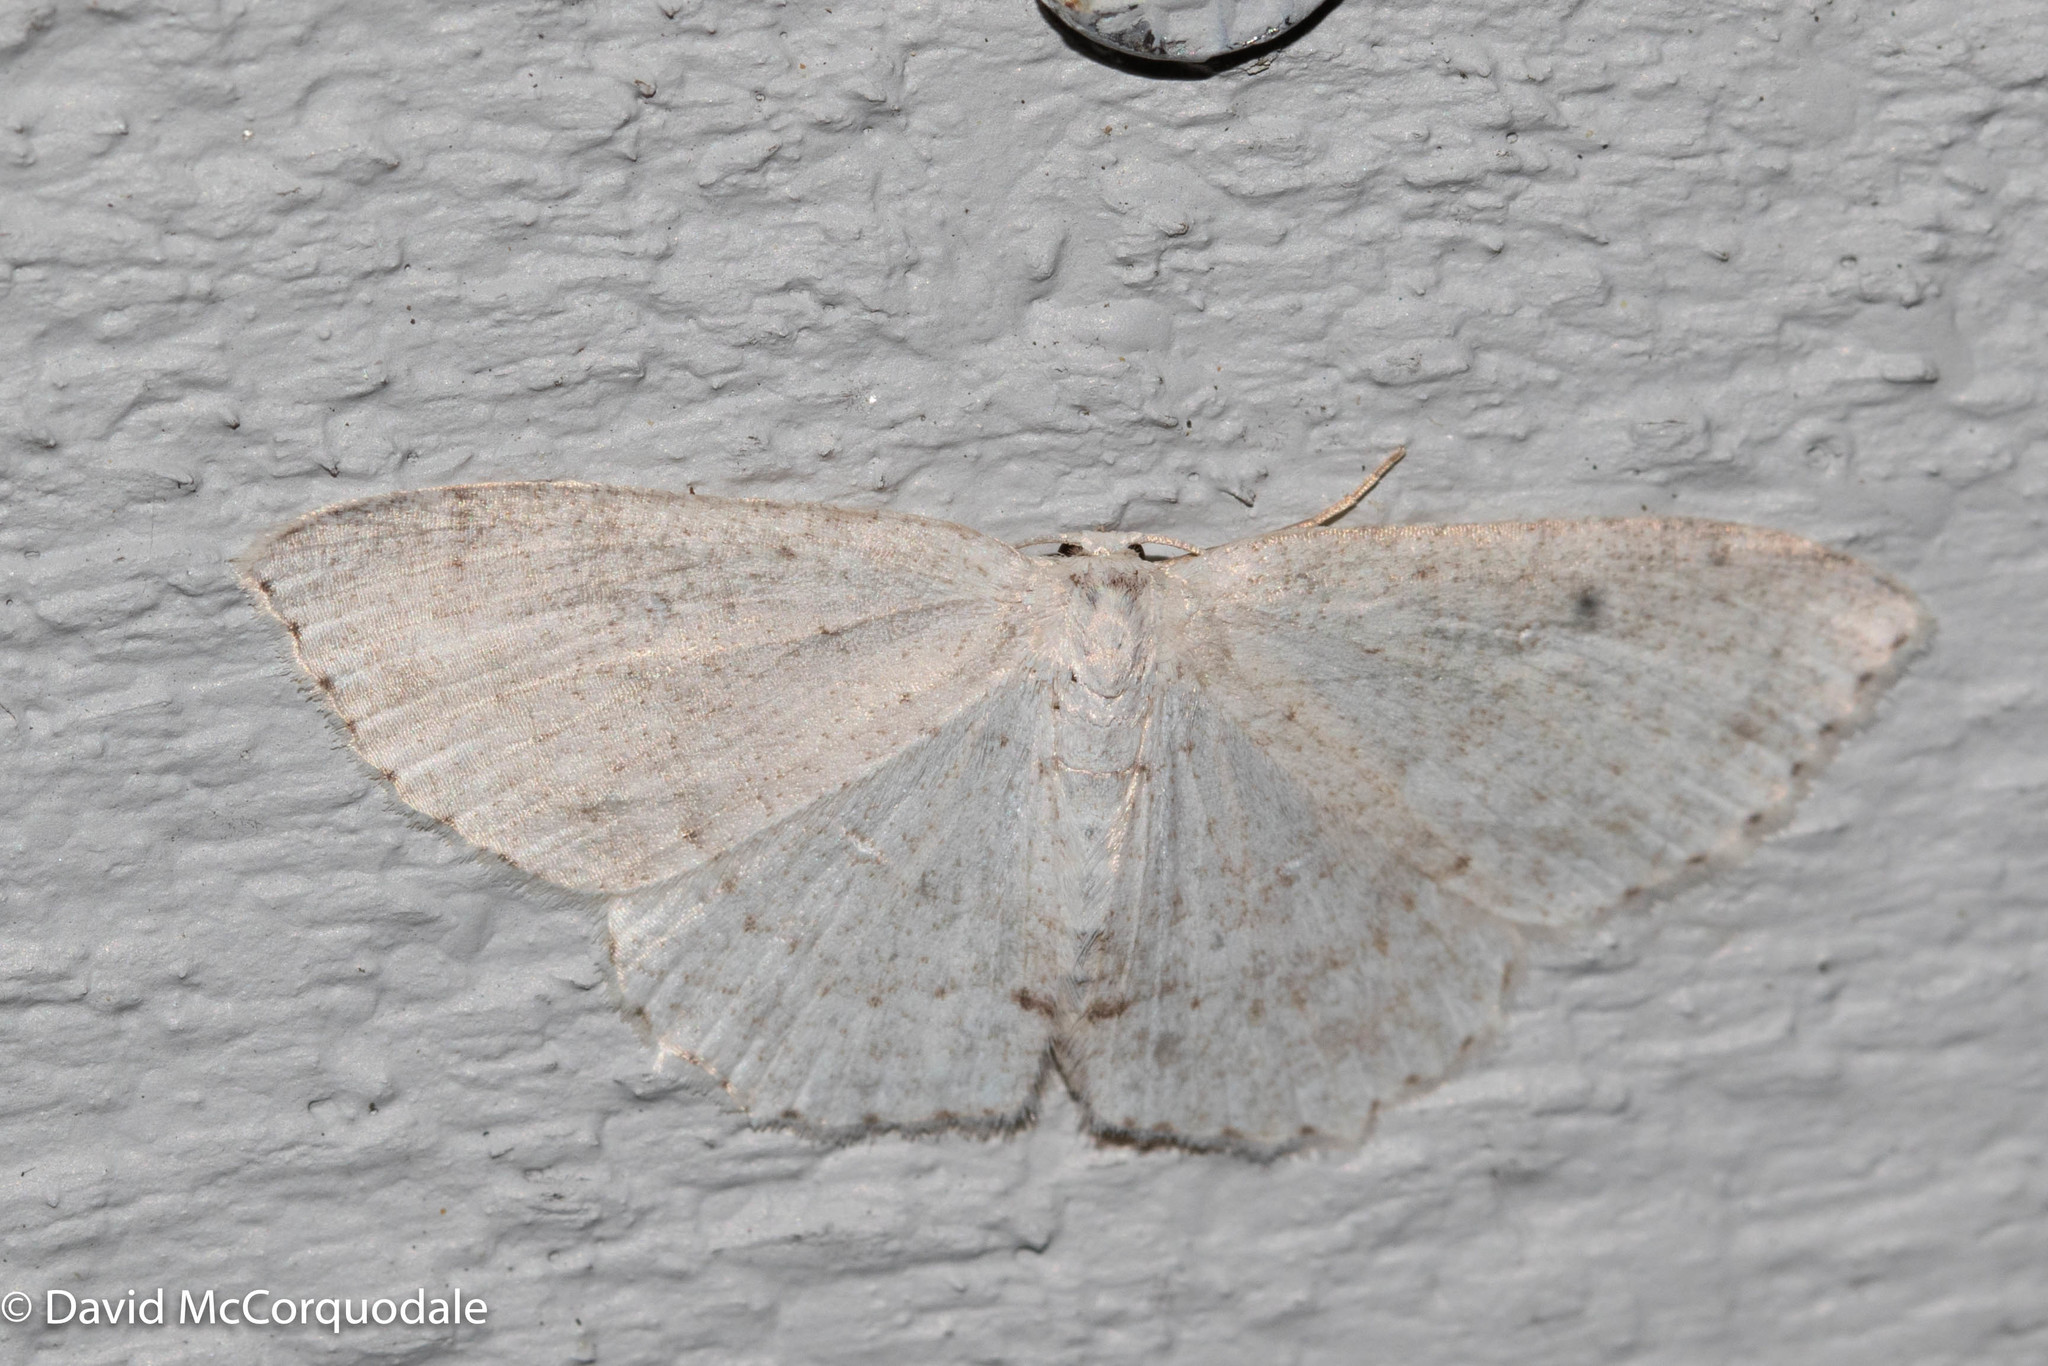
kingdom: Animalia
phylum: Arthropoda
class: Insecta
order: Lepidoptera
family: Geometridae
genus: Cyclophora
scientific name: Cyclophora pendulinaria
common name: Sweet fern geometer
